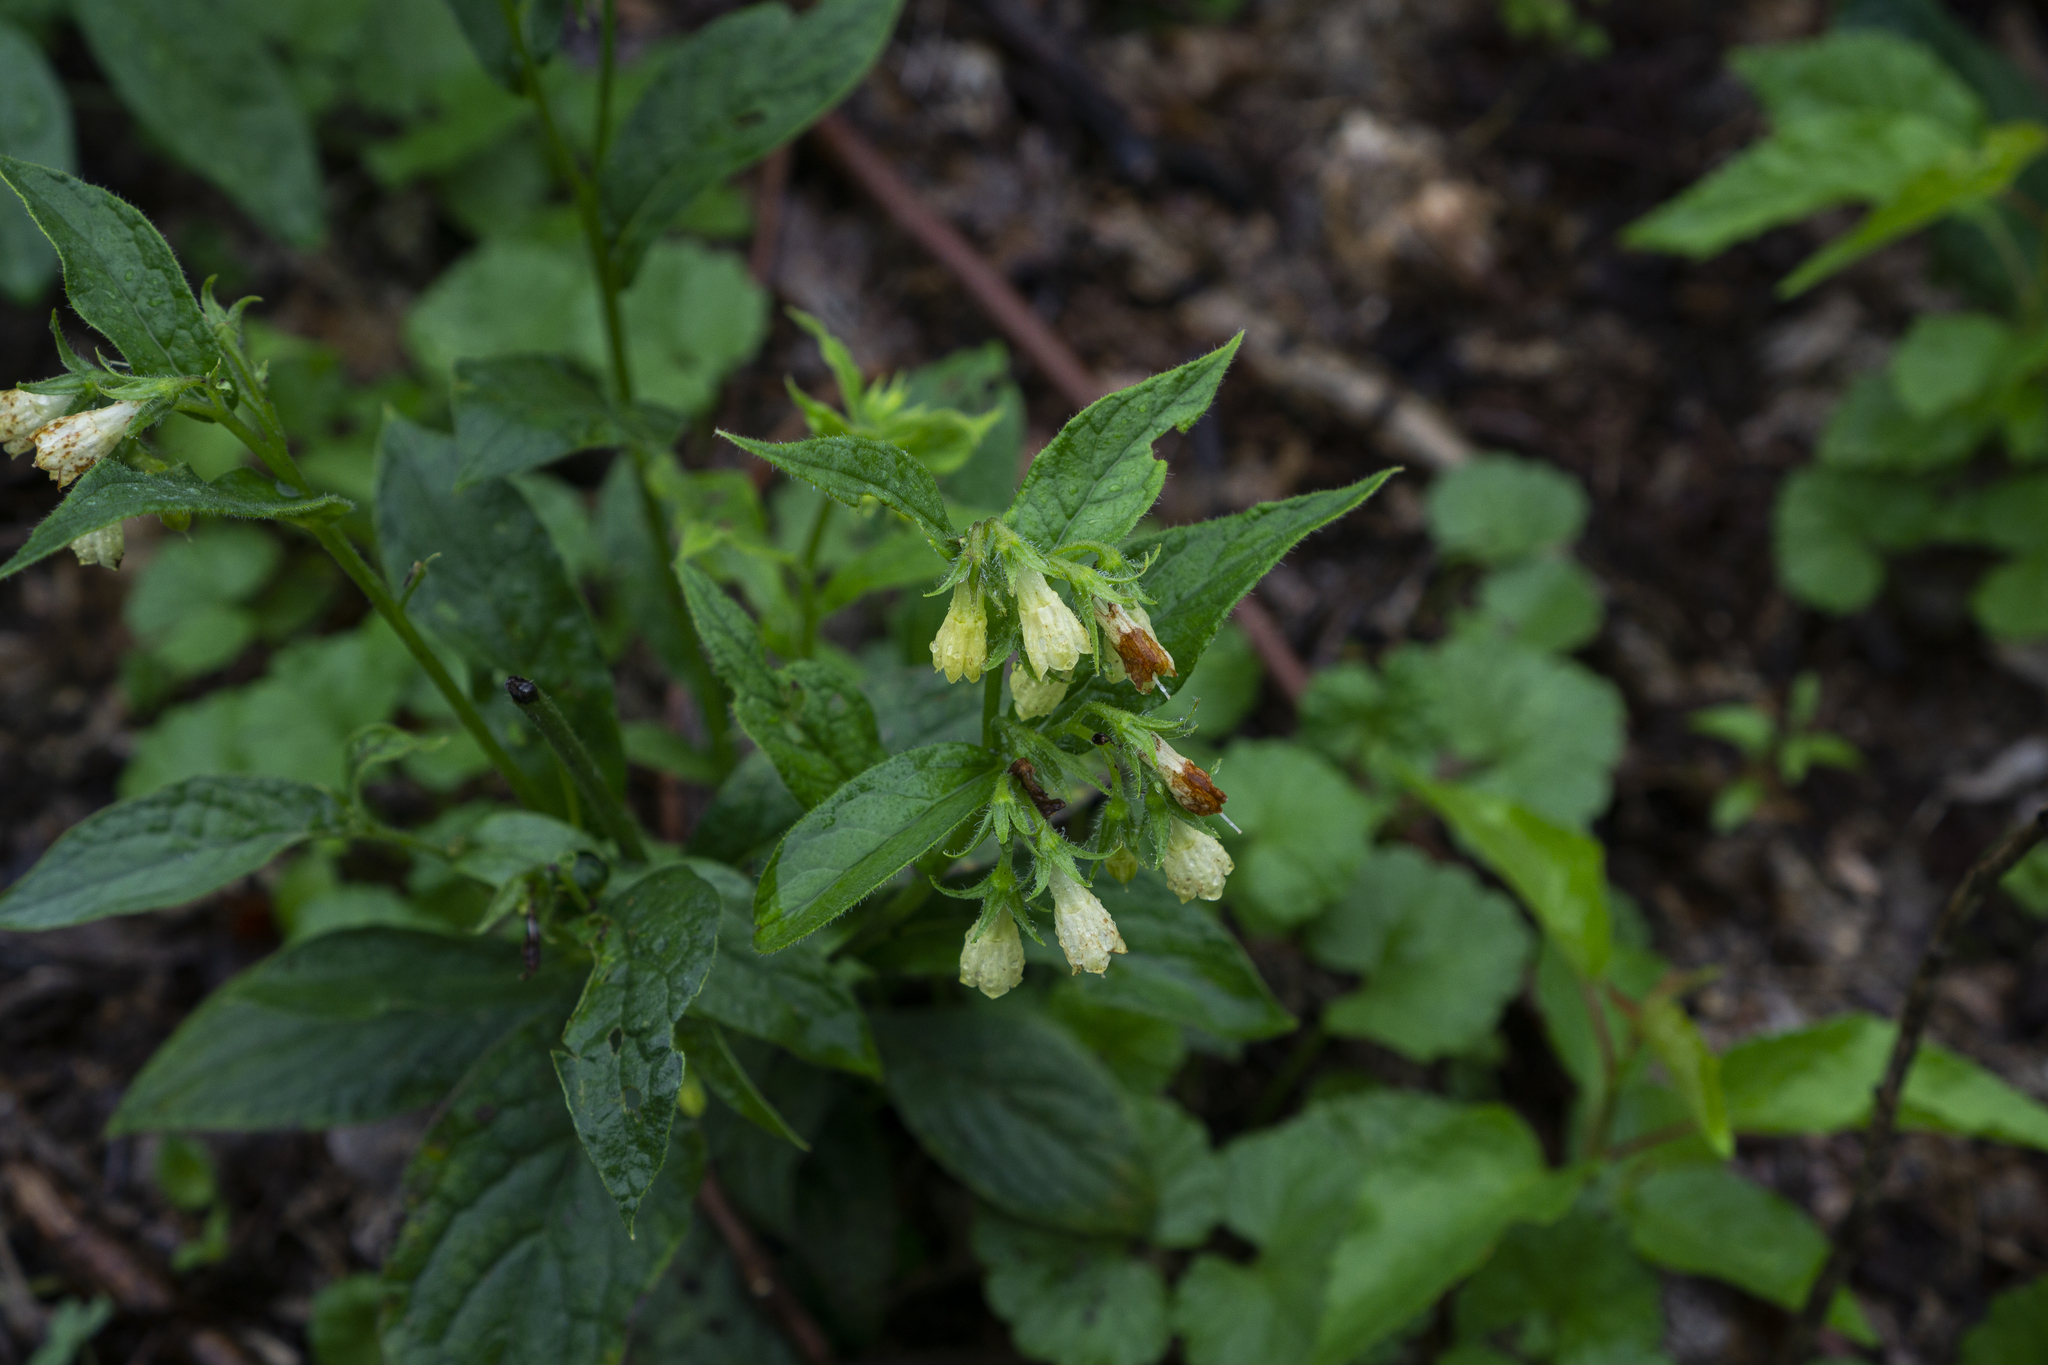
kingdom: Plantae
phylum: Tracheophyta
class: Magnoliopsida
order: Boraginales
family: Boraginaceae
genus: Symphytum
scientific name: Symphytum tuberosum
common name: Tuberous comfrey
